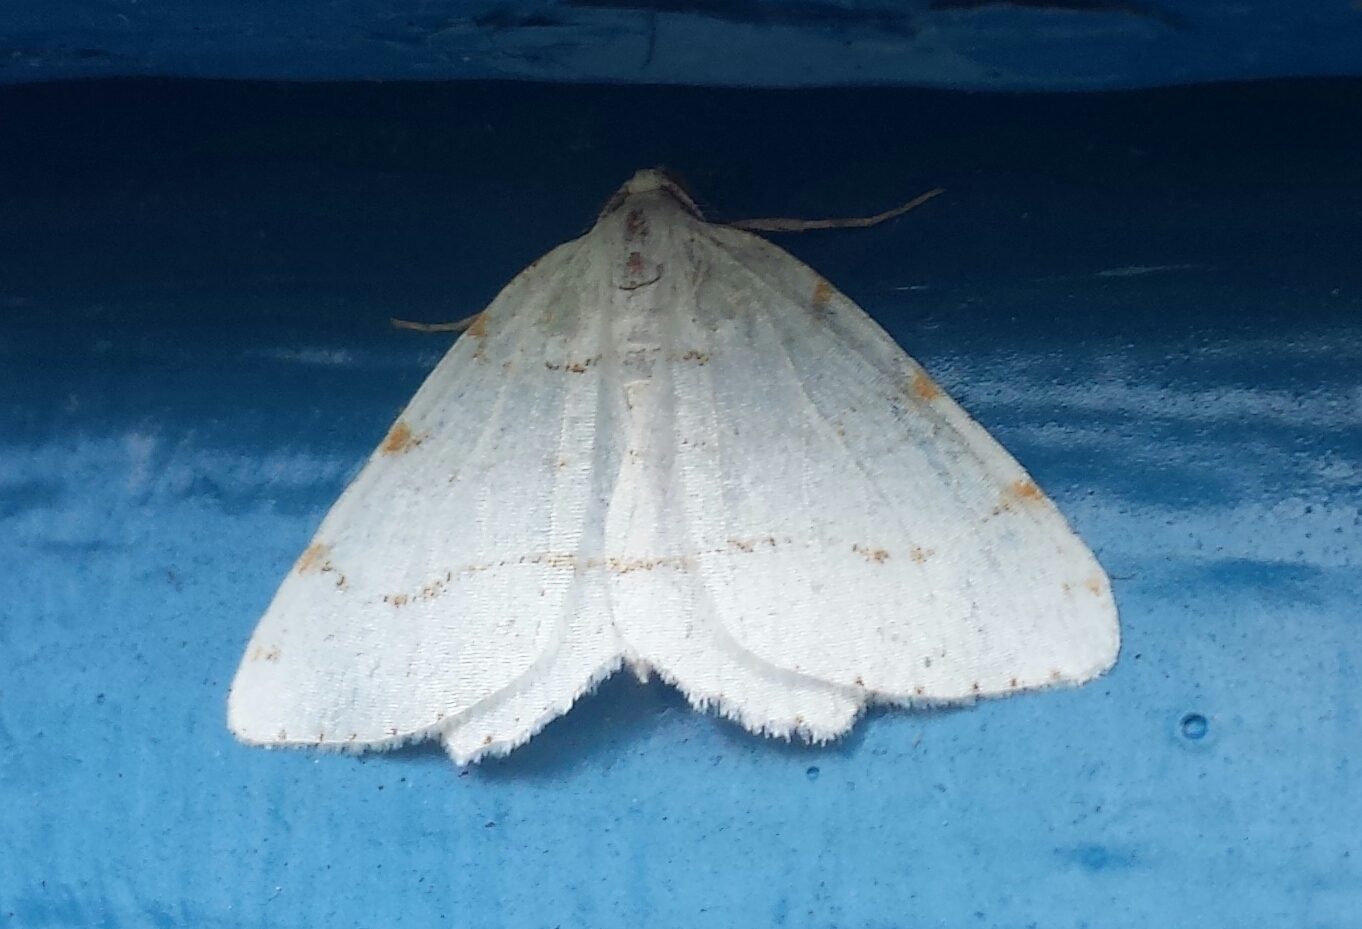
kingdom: Animalia
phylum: Arthropoda
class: Insecta
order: Lepidoptera
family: Geometridae
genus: Macaria
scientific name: Macaria pustularia
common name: Lesser maple spanworm moth
